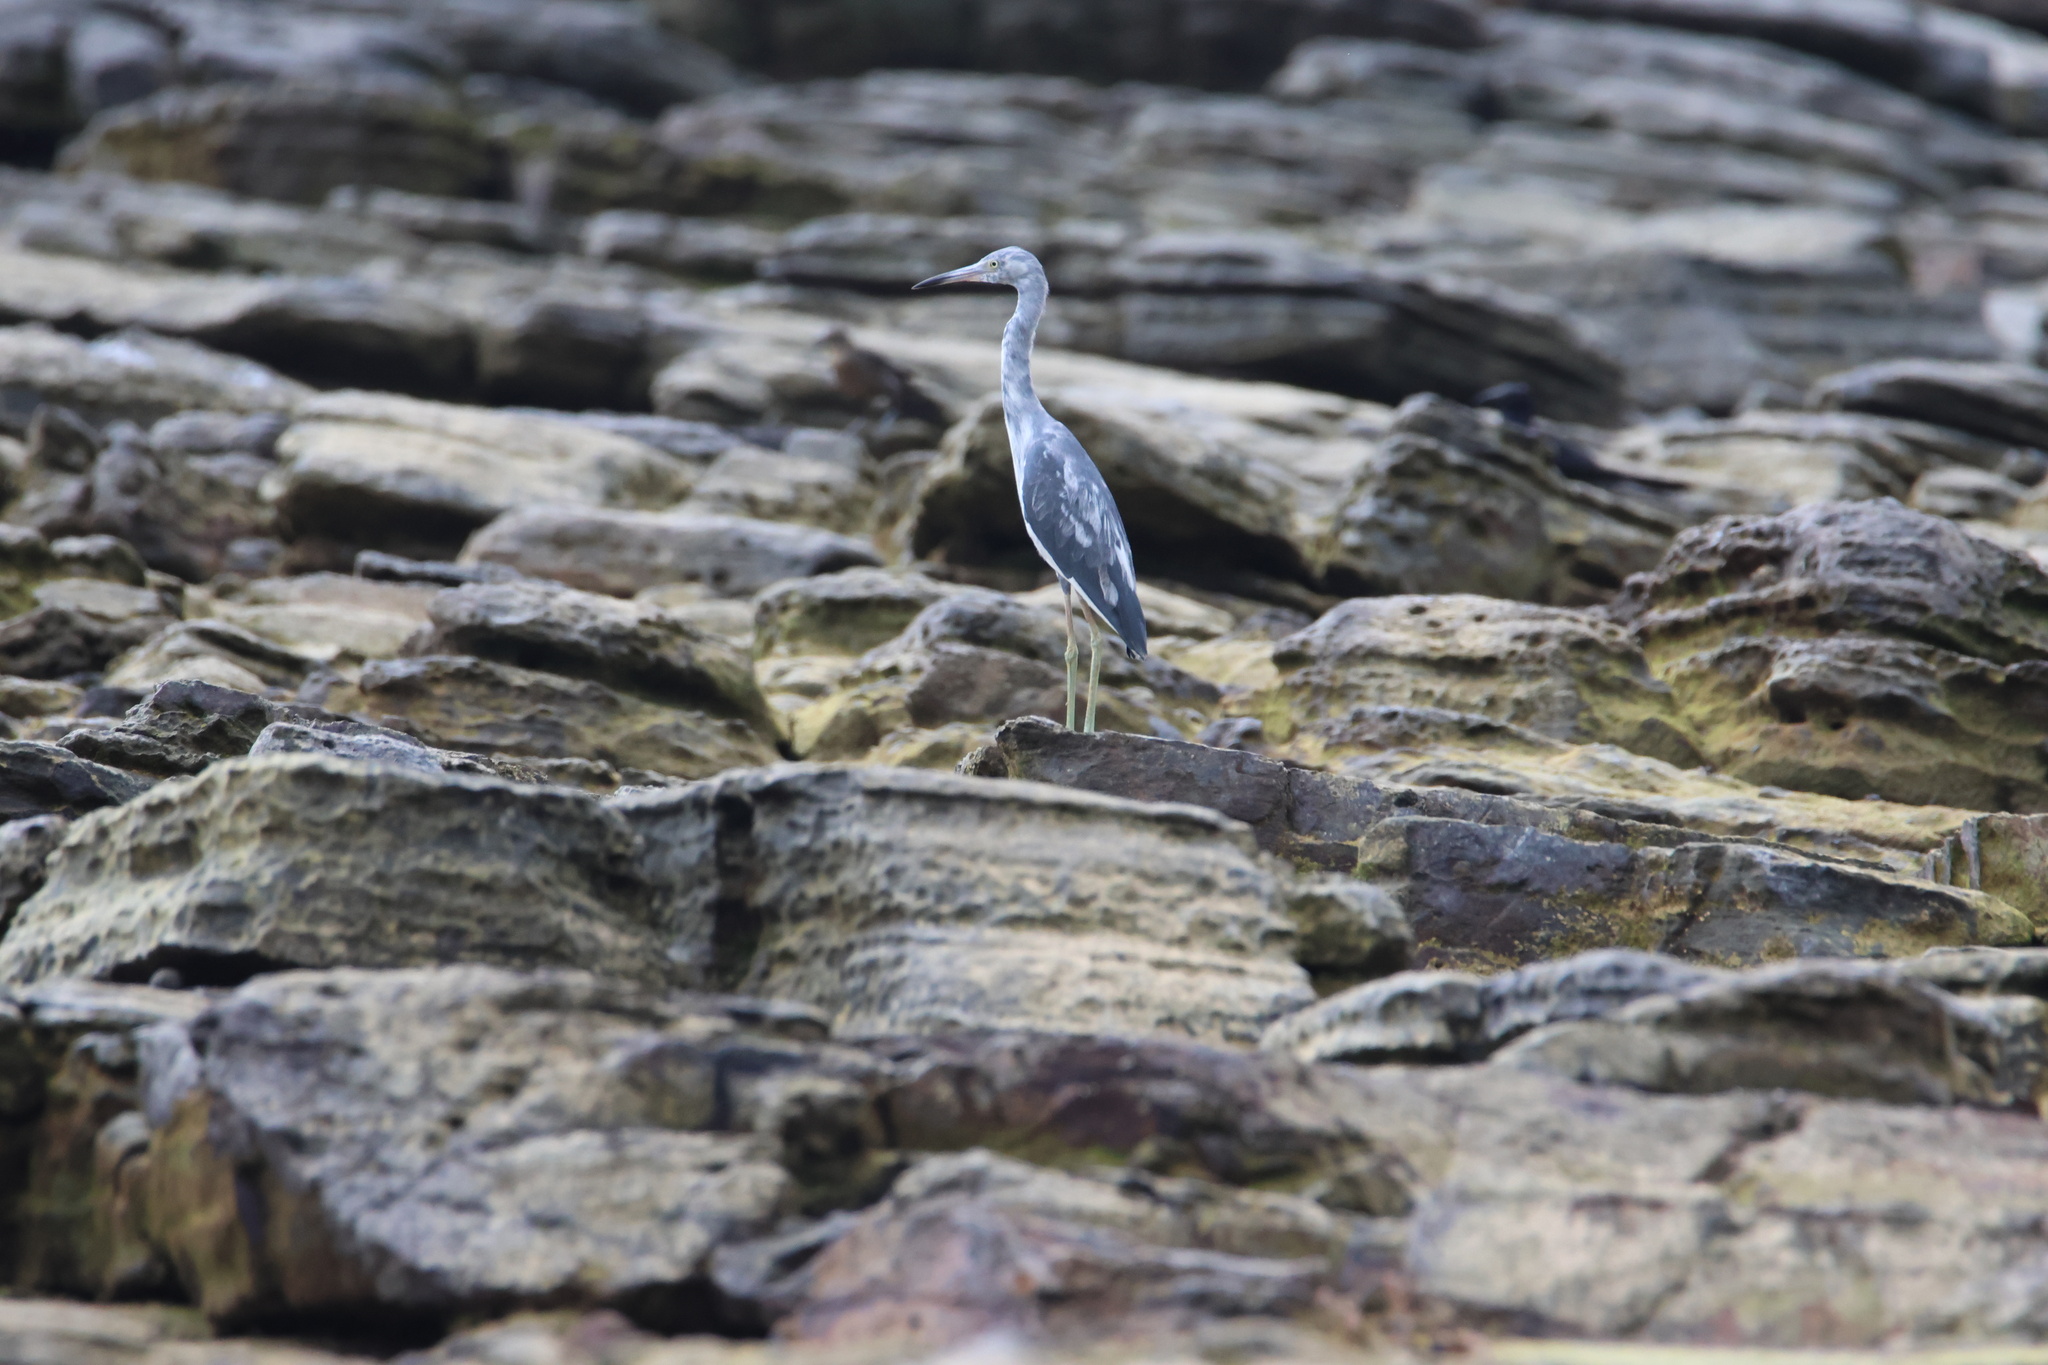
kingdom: Animalia
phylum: Chordata
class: Aves
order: Pelecaniformes
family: Ardeidae
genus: Egretta
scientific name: Egretta caerulea
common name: Little blue heron
